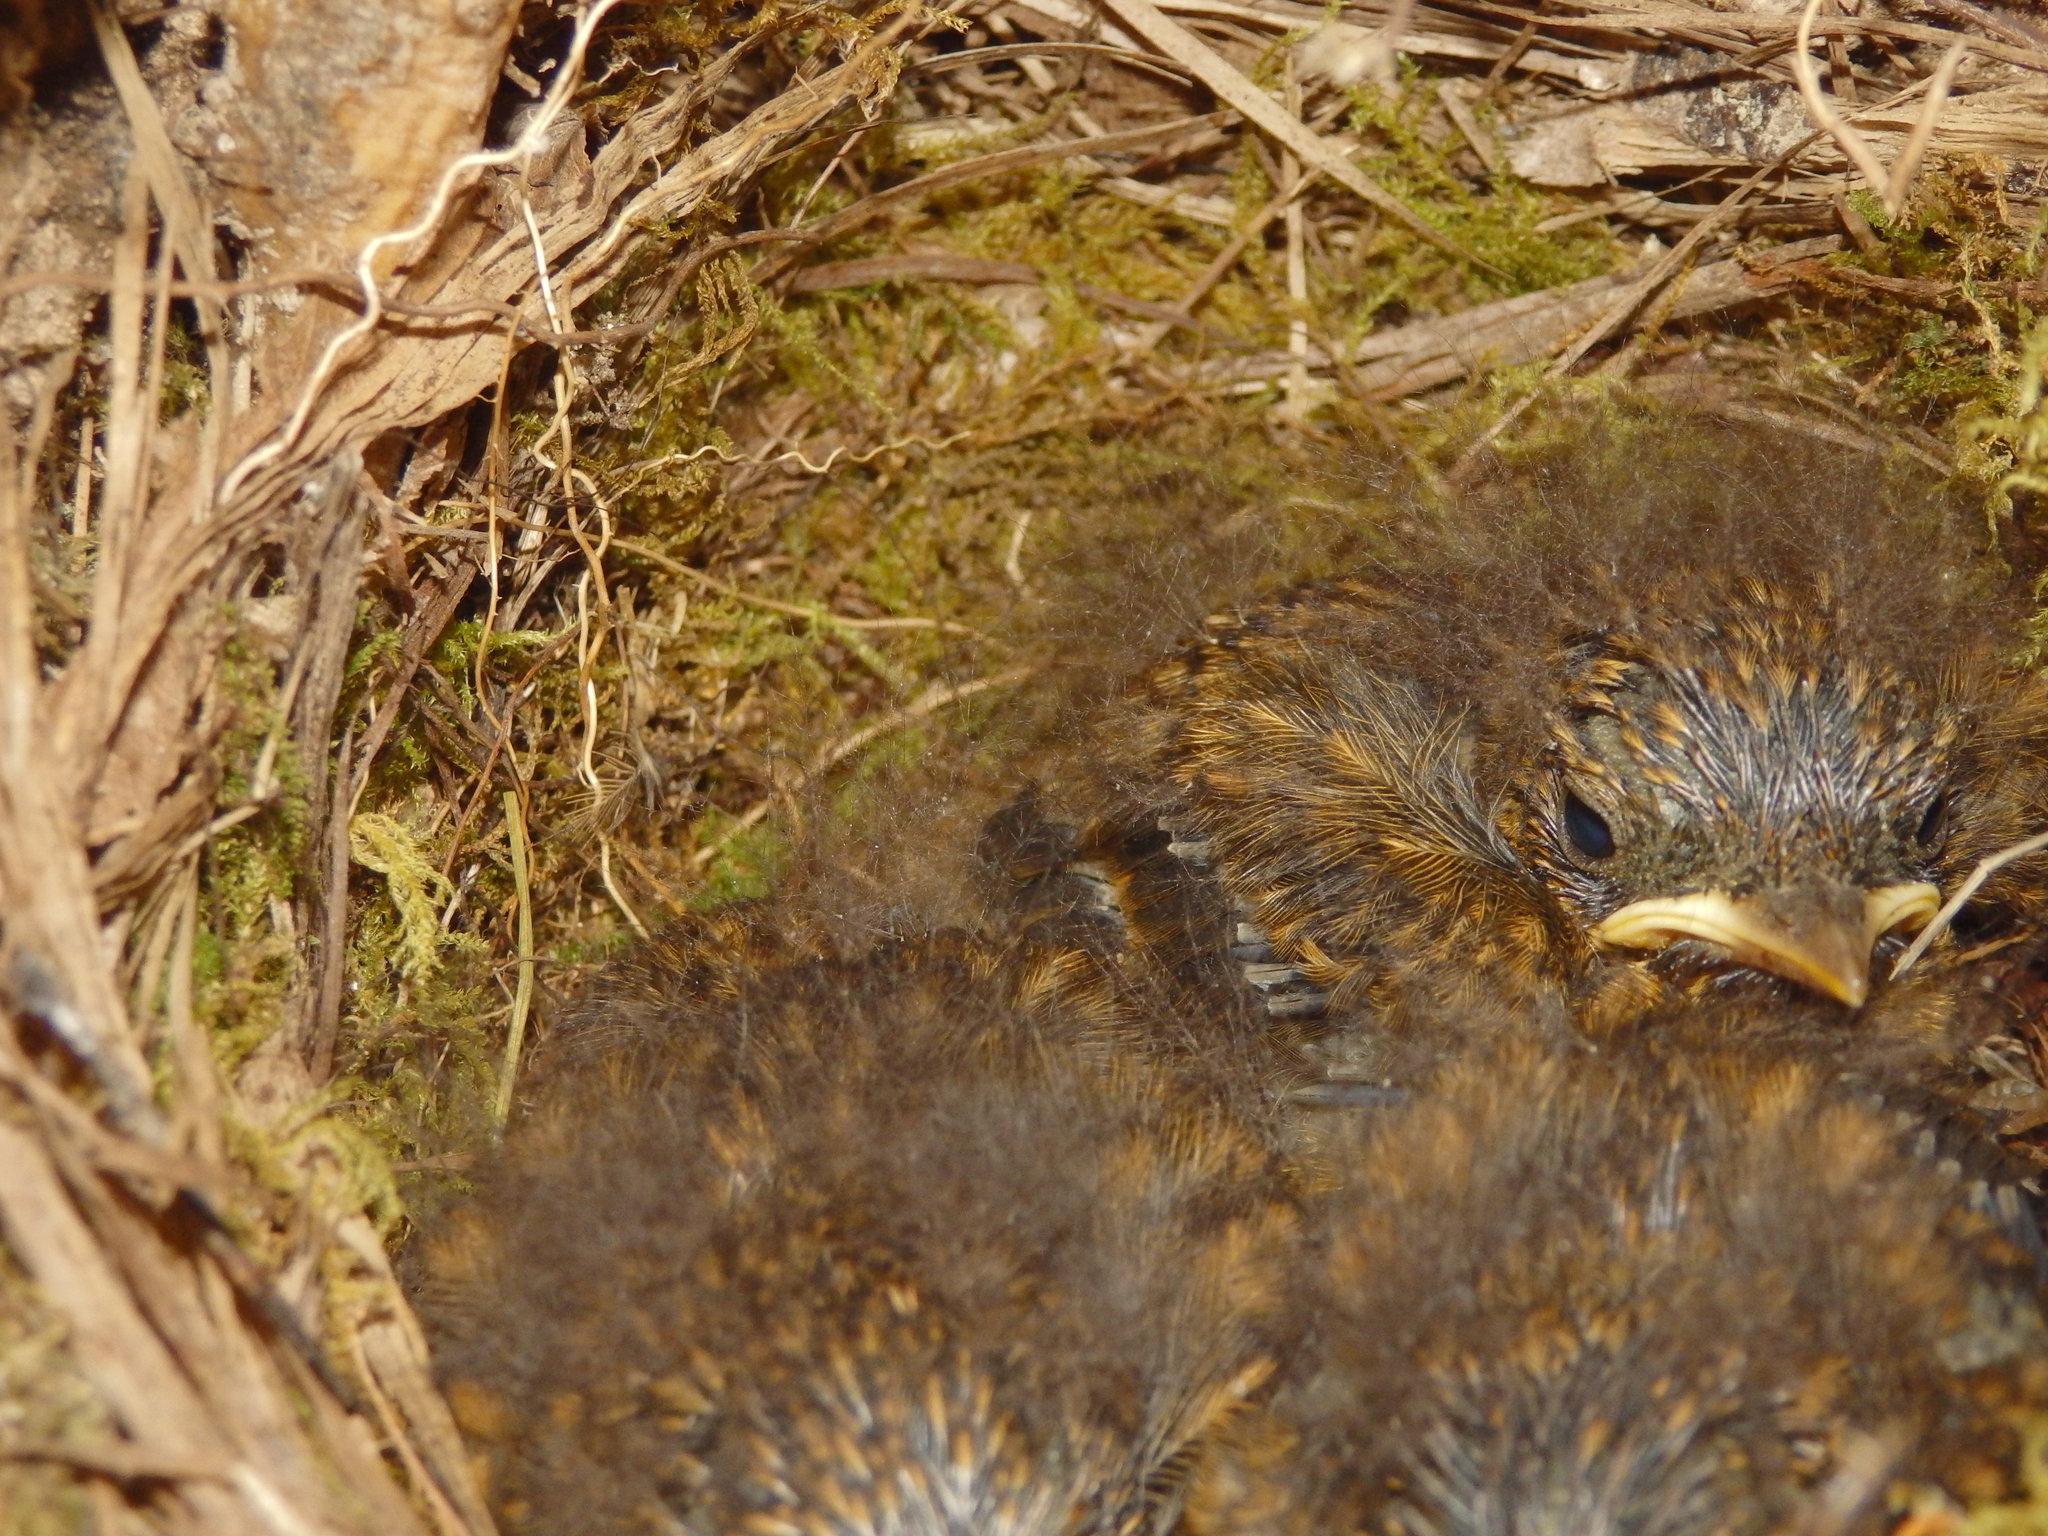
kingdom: Animalia
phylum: Chordata
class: Aves
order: Passeriformes
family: Muscicapidae
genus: Erithacus
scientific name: Erithacus rubecula
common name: European robin
